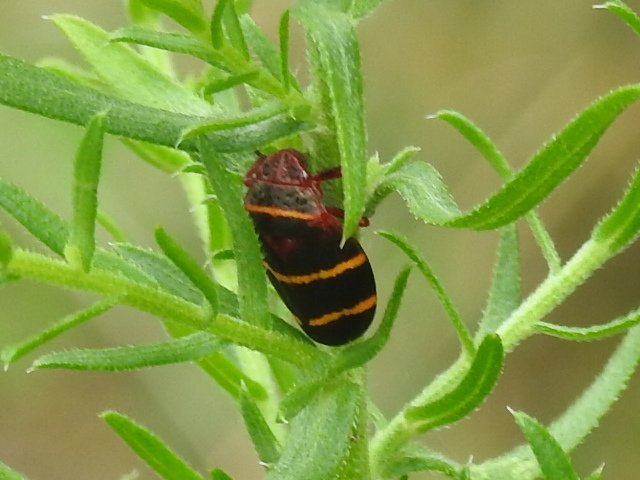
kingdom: Animalia
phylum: Arthropoda
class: Insecta
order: Hemiptera
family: Cercopidae
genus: Prosapia
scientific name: Prosapia bicincta
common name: Twolined spittlebug
